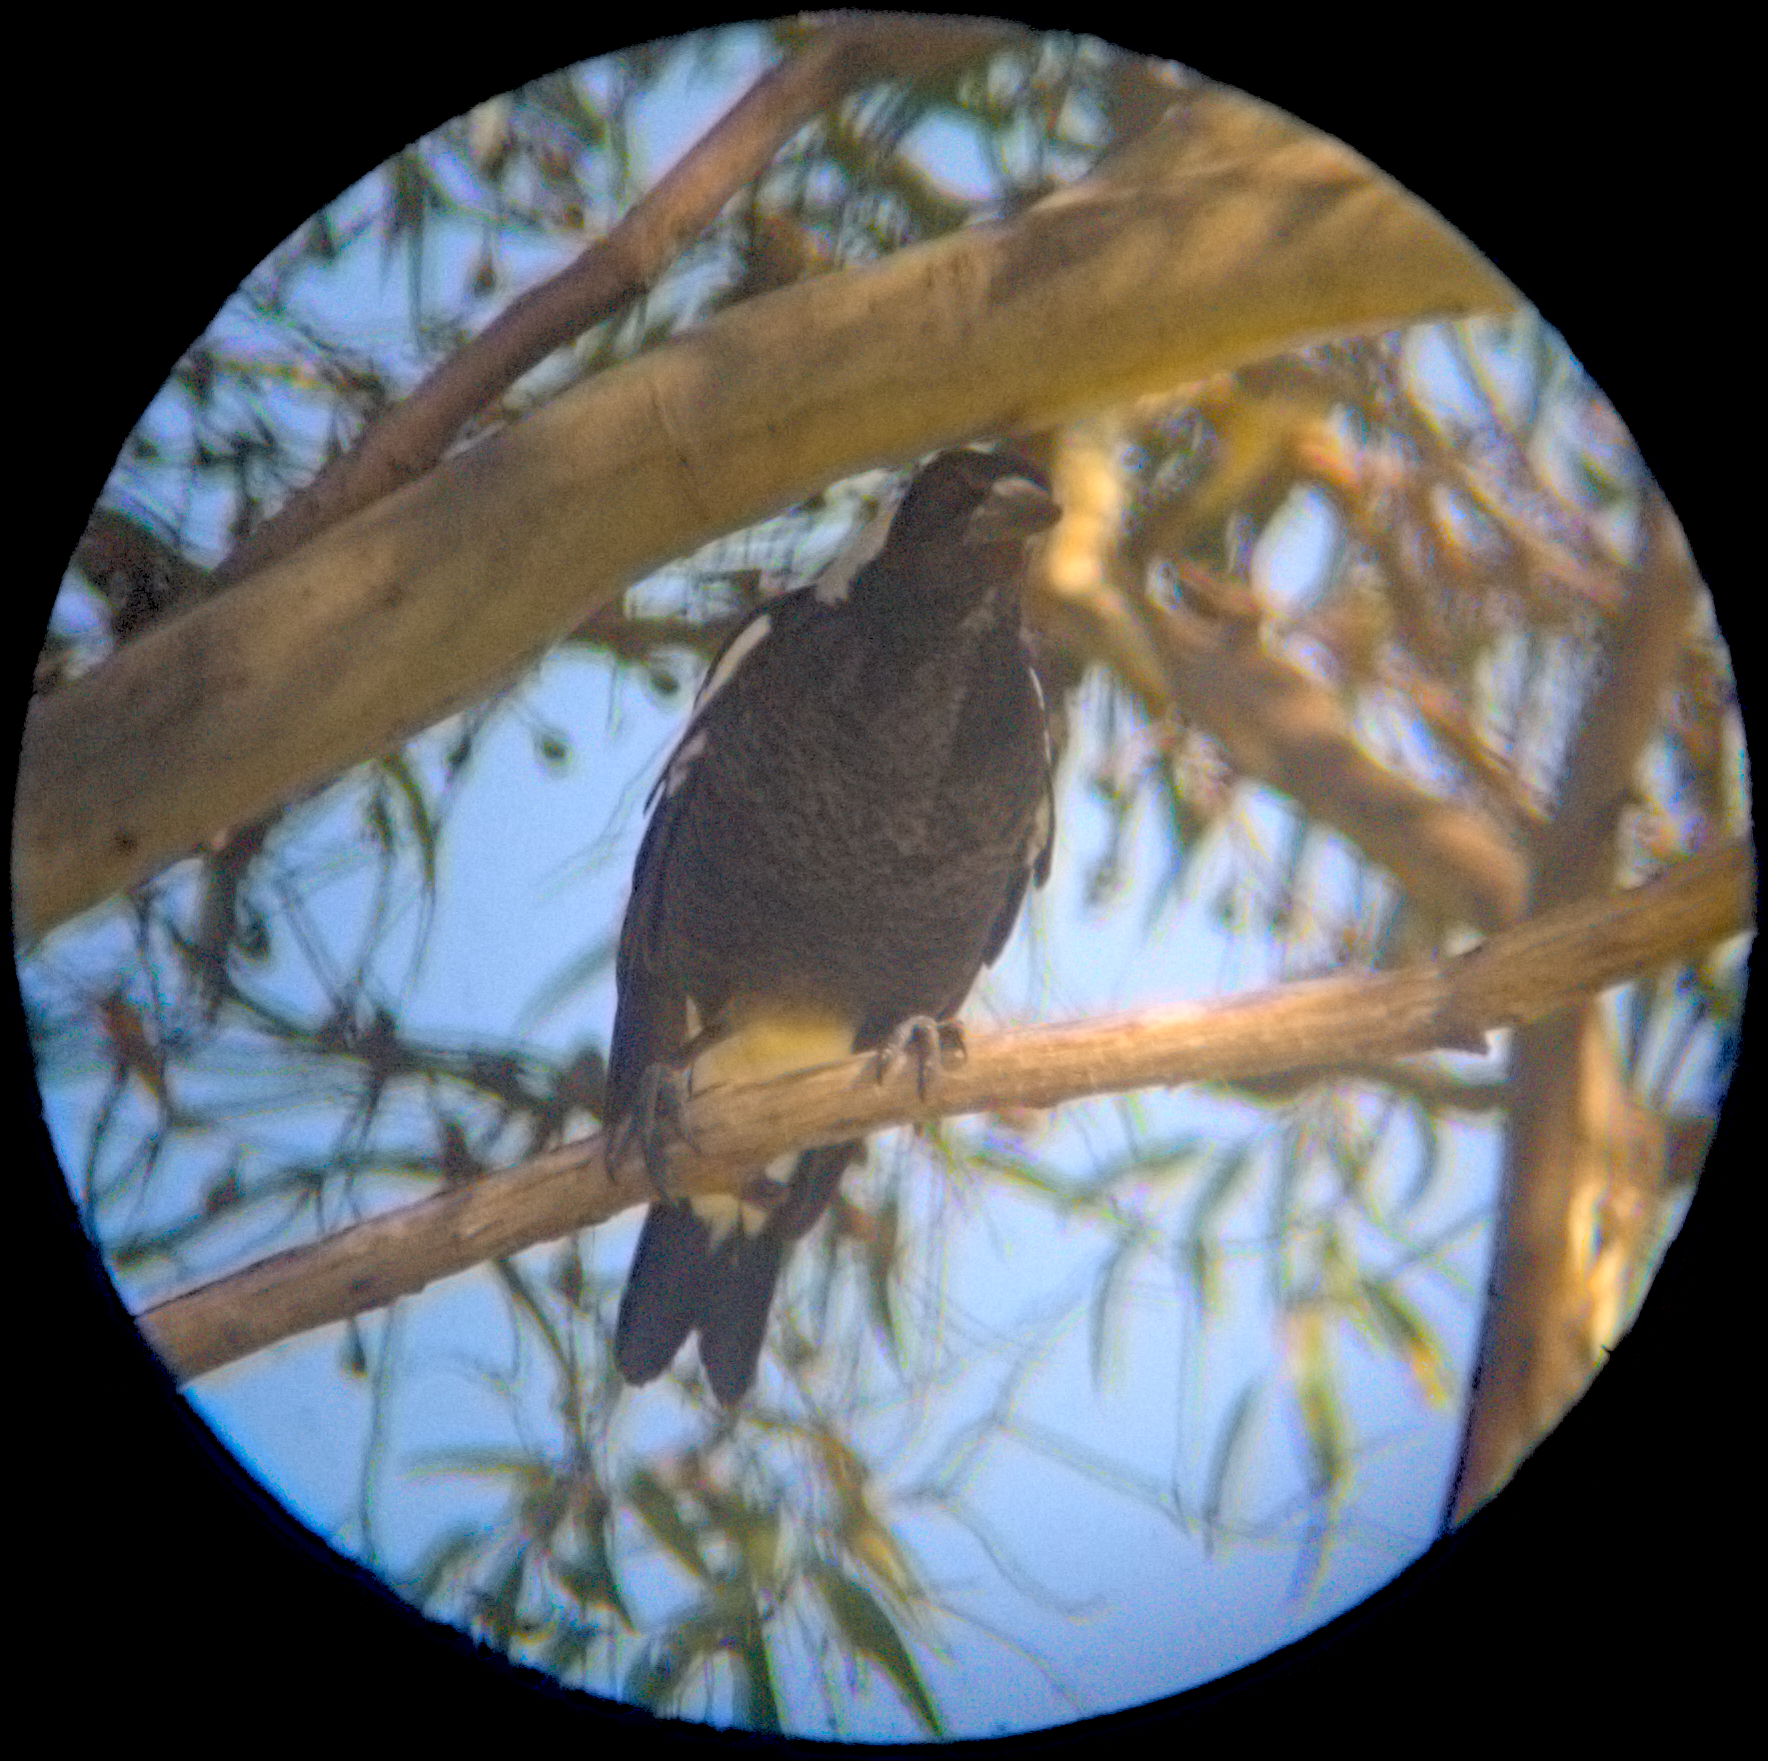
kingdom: Animalia
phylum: Chordata
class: Aves
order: Passeriformes
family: Cracticidae
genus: Gymnorhina
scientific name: Gymnorhina tibicen
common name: Australian magpie
